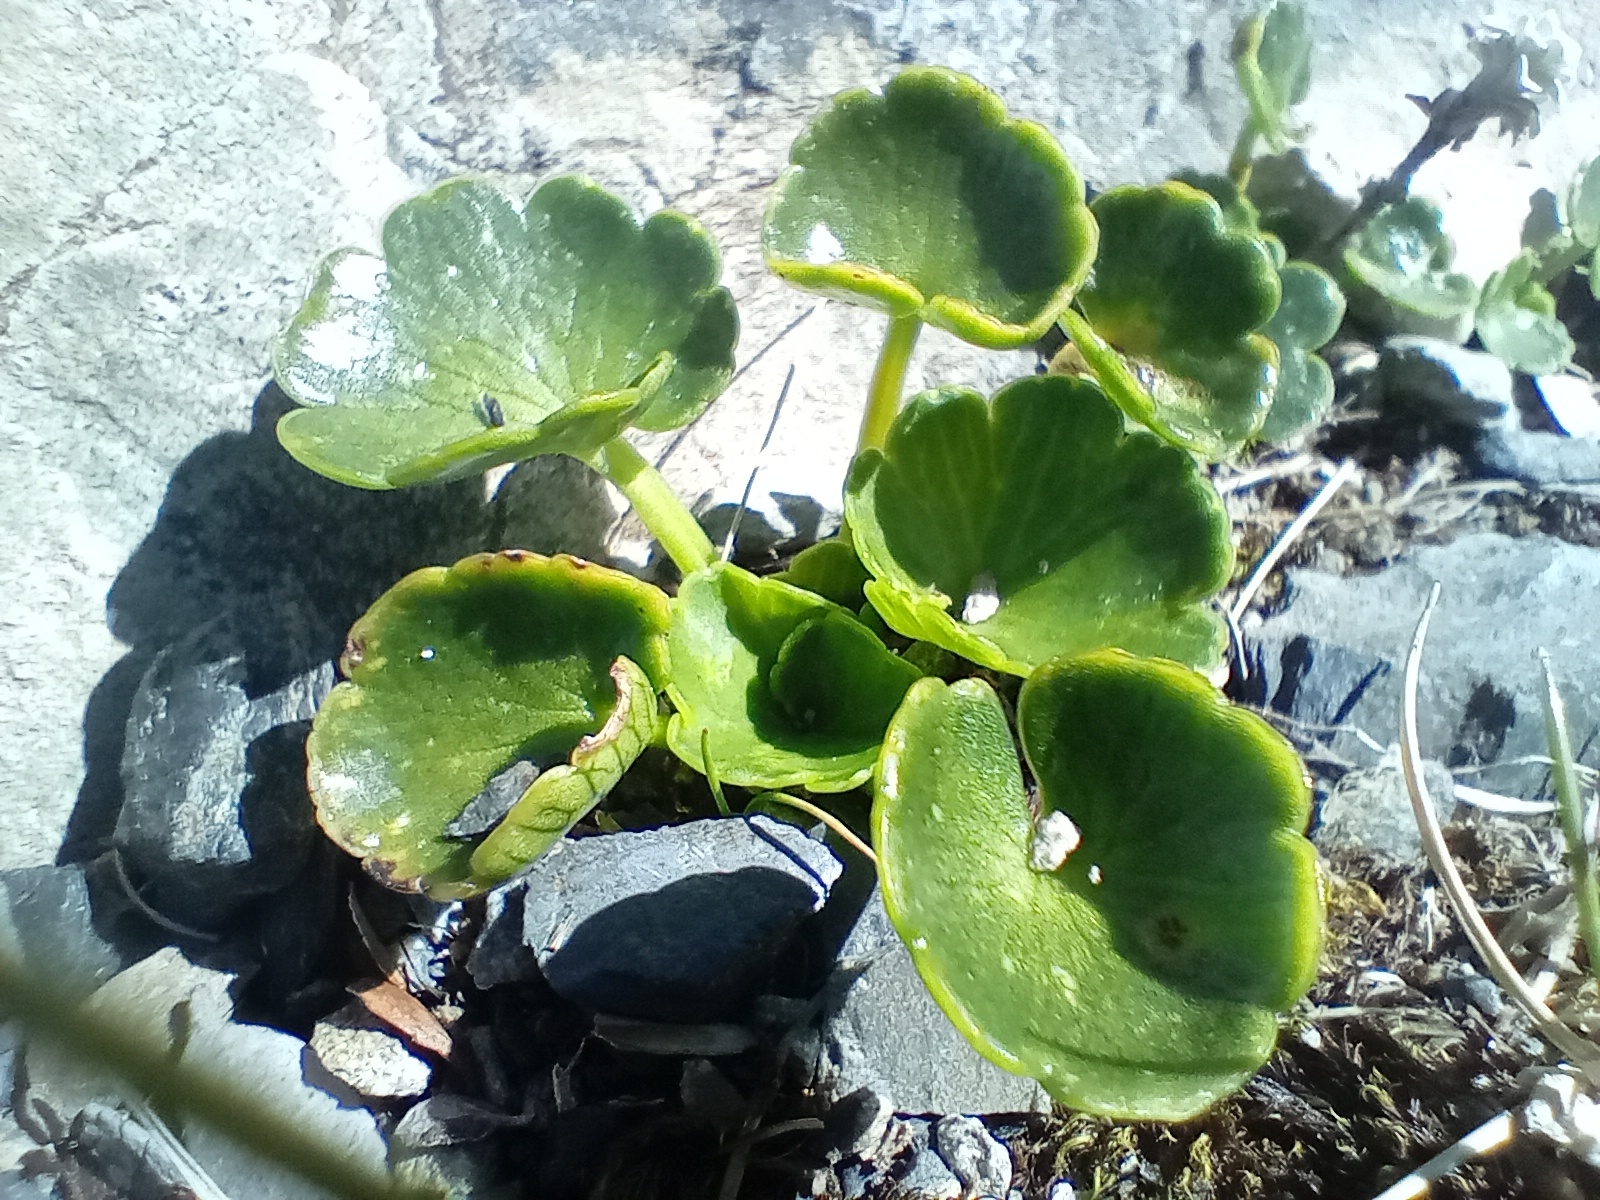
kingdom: Plantae
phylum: Tracheophyta
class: Magnoliopsida
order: Apiales
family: Apiaceae
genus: Azorella
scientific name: Azorella haastii
